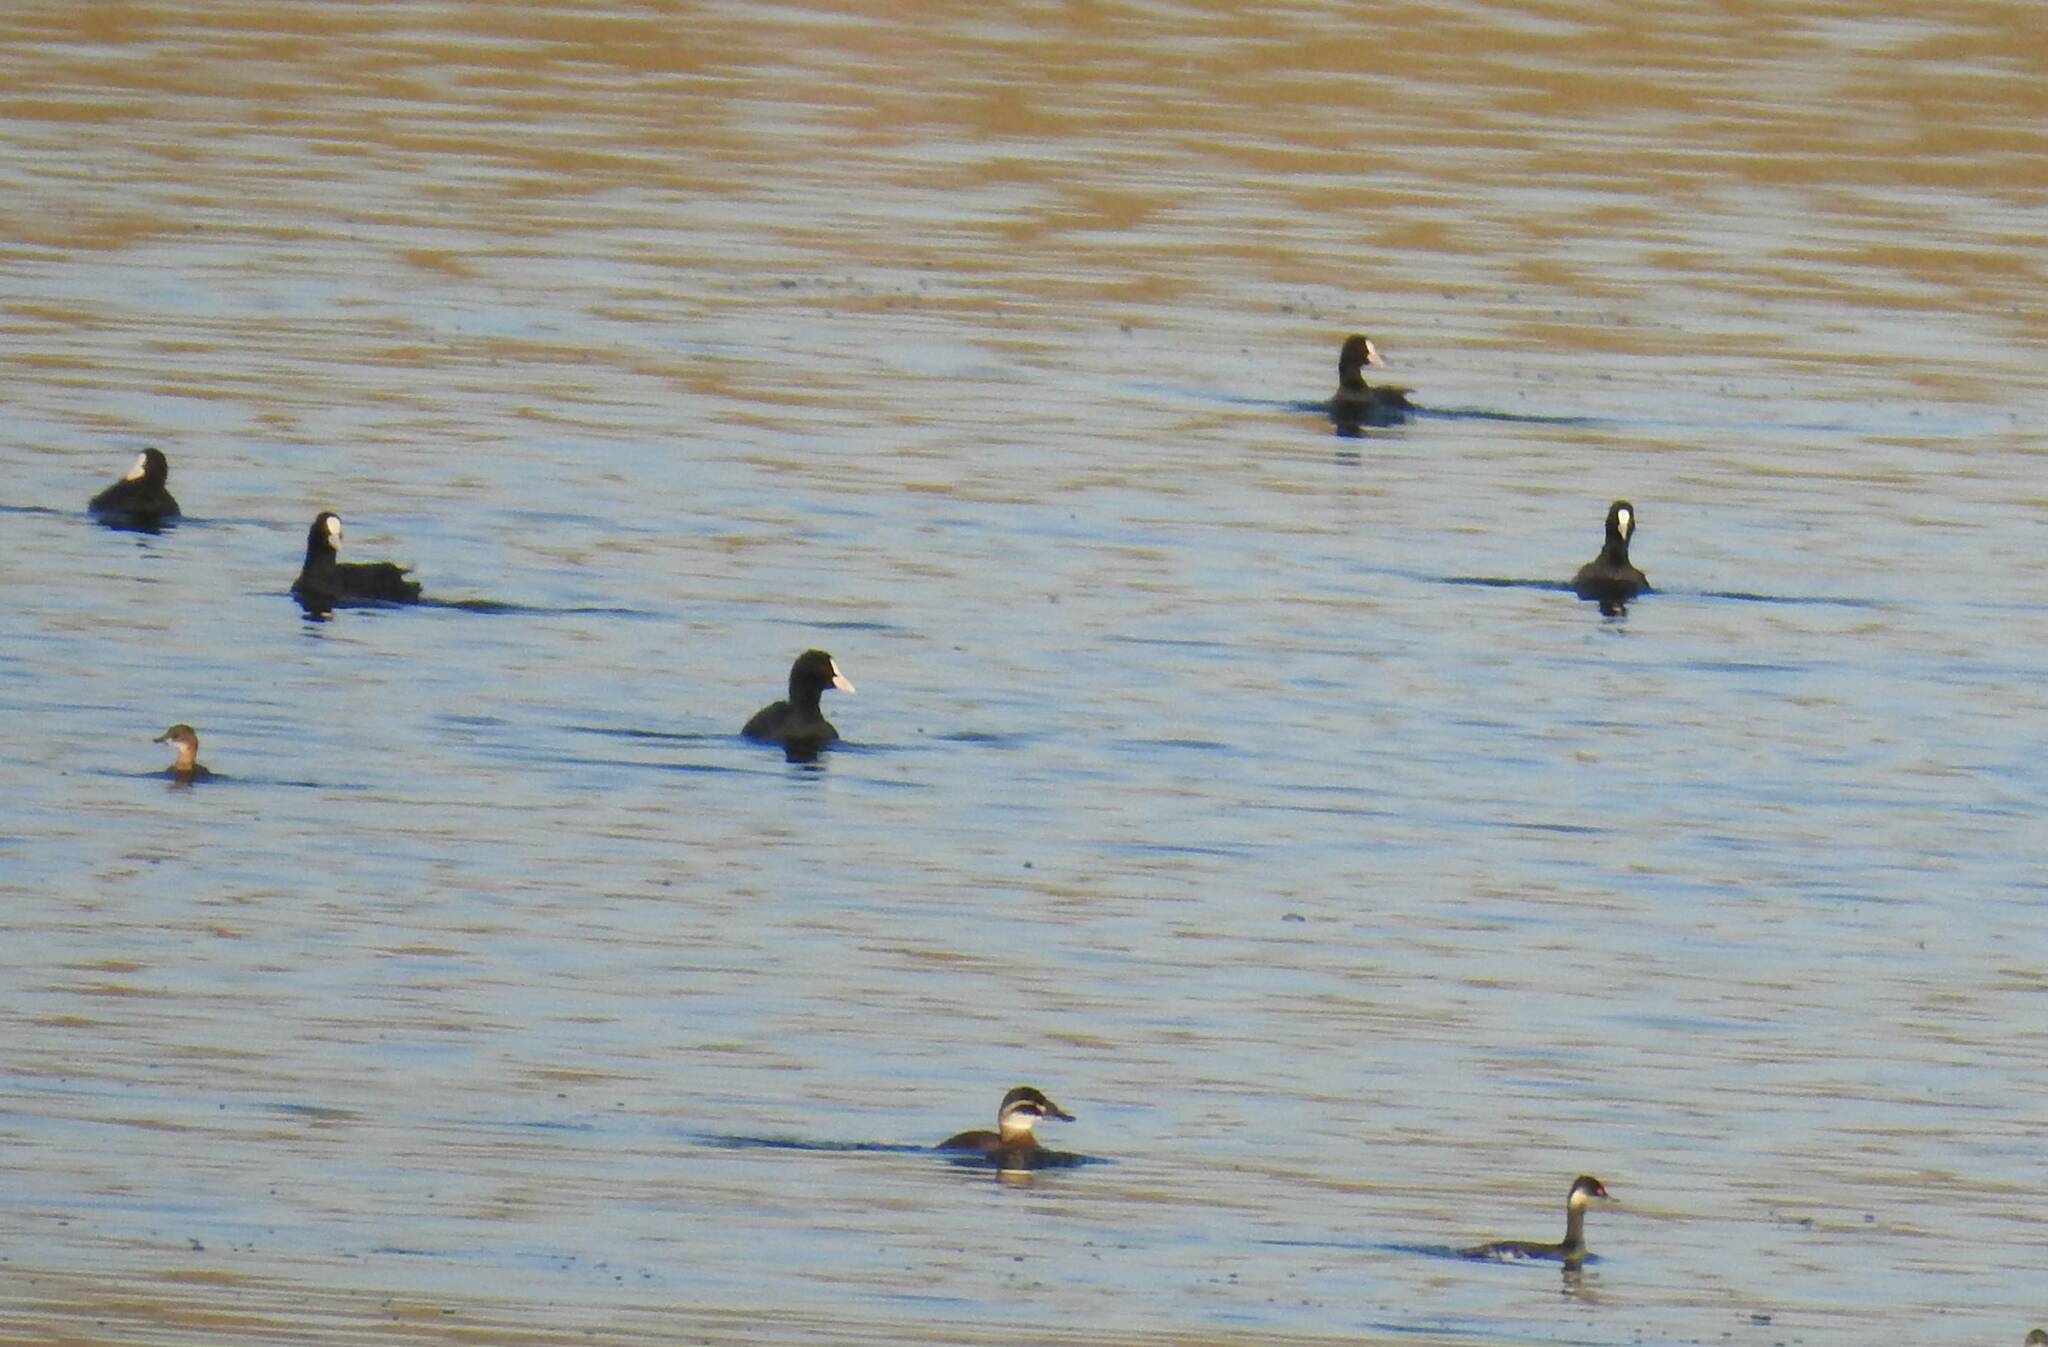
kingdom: Animalia
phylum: Chordata
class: Aves
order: Gruiformes
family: Rallidae
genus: Fulica
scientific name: Fulica atra
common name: Eurasian coot
